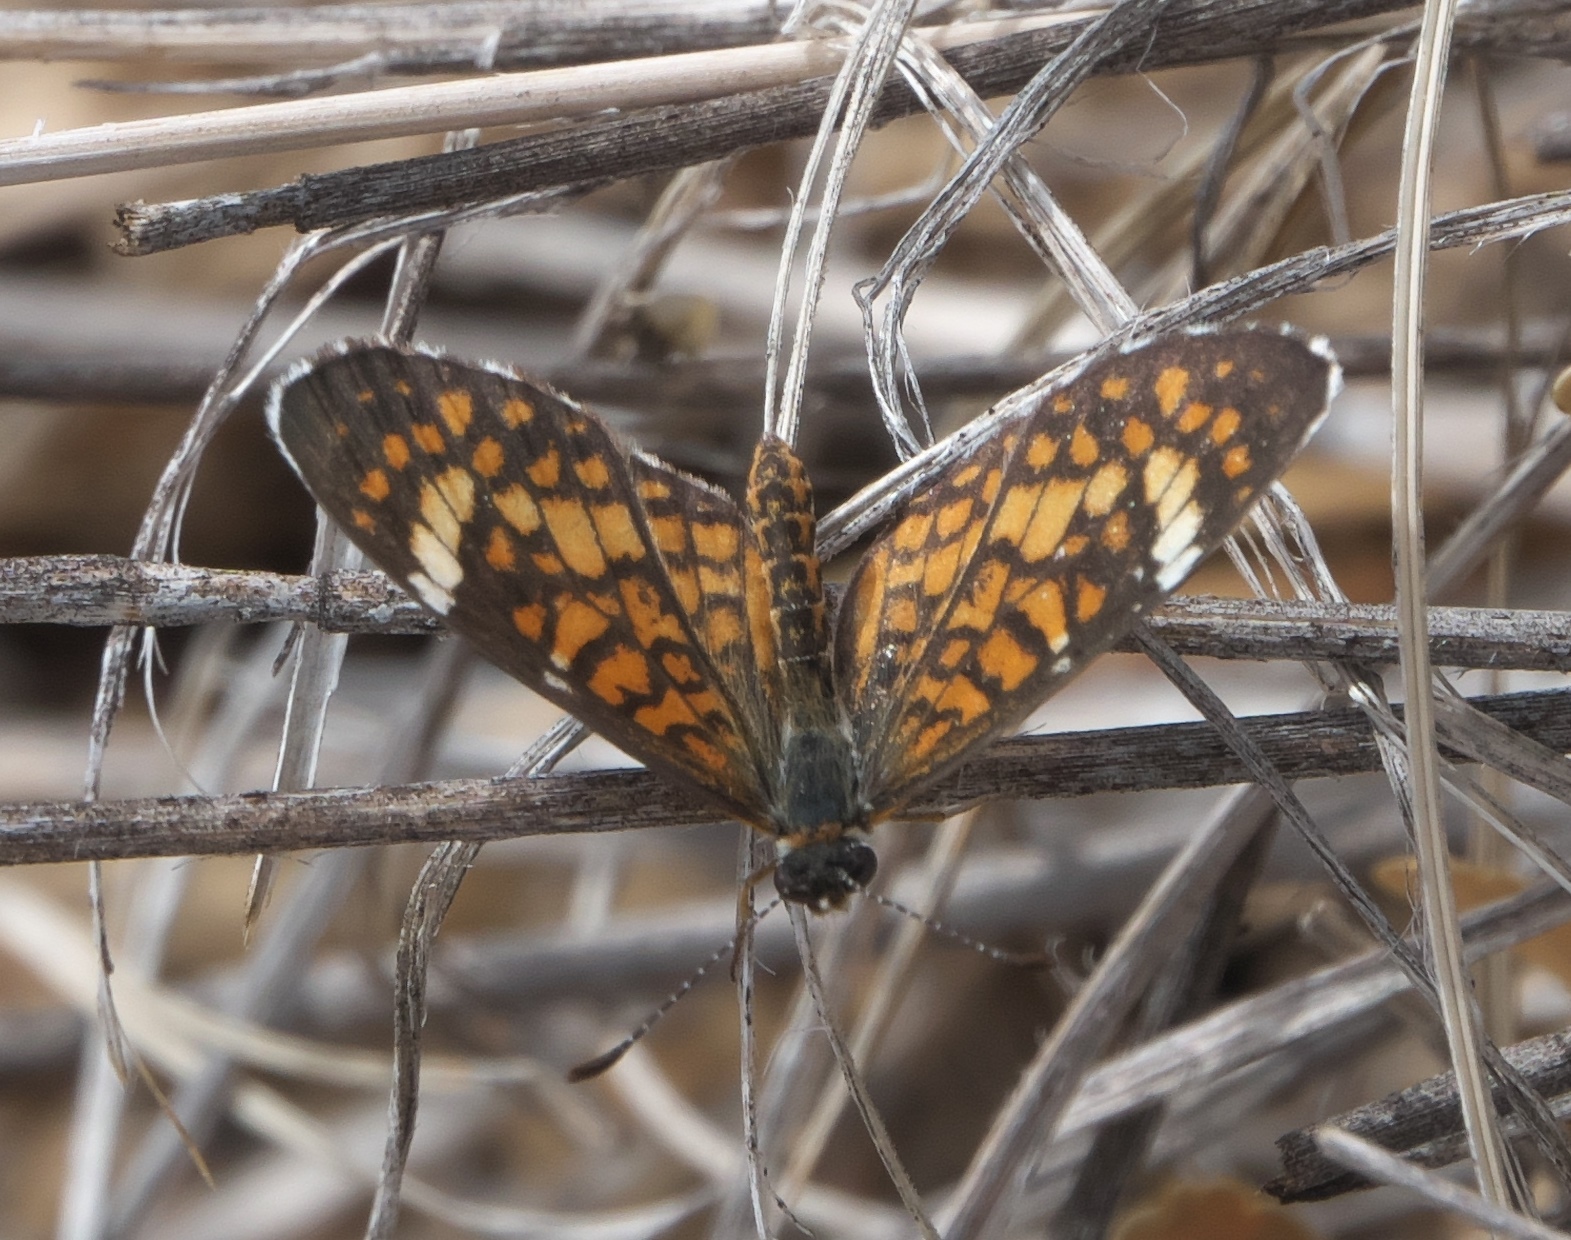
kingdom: Animalia
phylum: Arthropoda
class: Insecta
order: Lepidoptera
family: Nymphalidae
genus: Dymasia
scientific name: Dymasia dymas
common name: Tiny checkerspot
